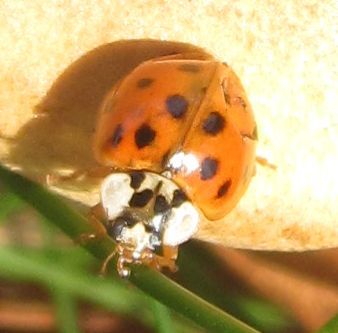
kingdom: Animalia
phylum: Arthropoda
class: Insecta
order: Coleoptera
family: Coccinellidae
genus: Harmonia
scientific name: Harmonia axyridis
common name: Harlequin ladybird
